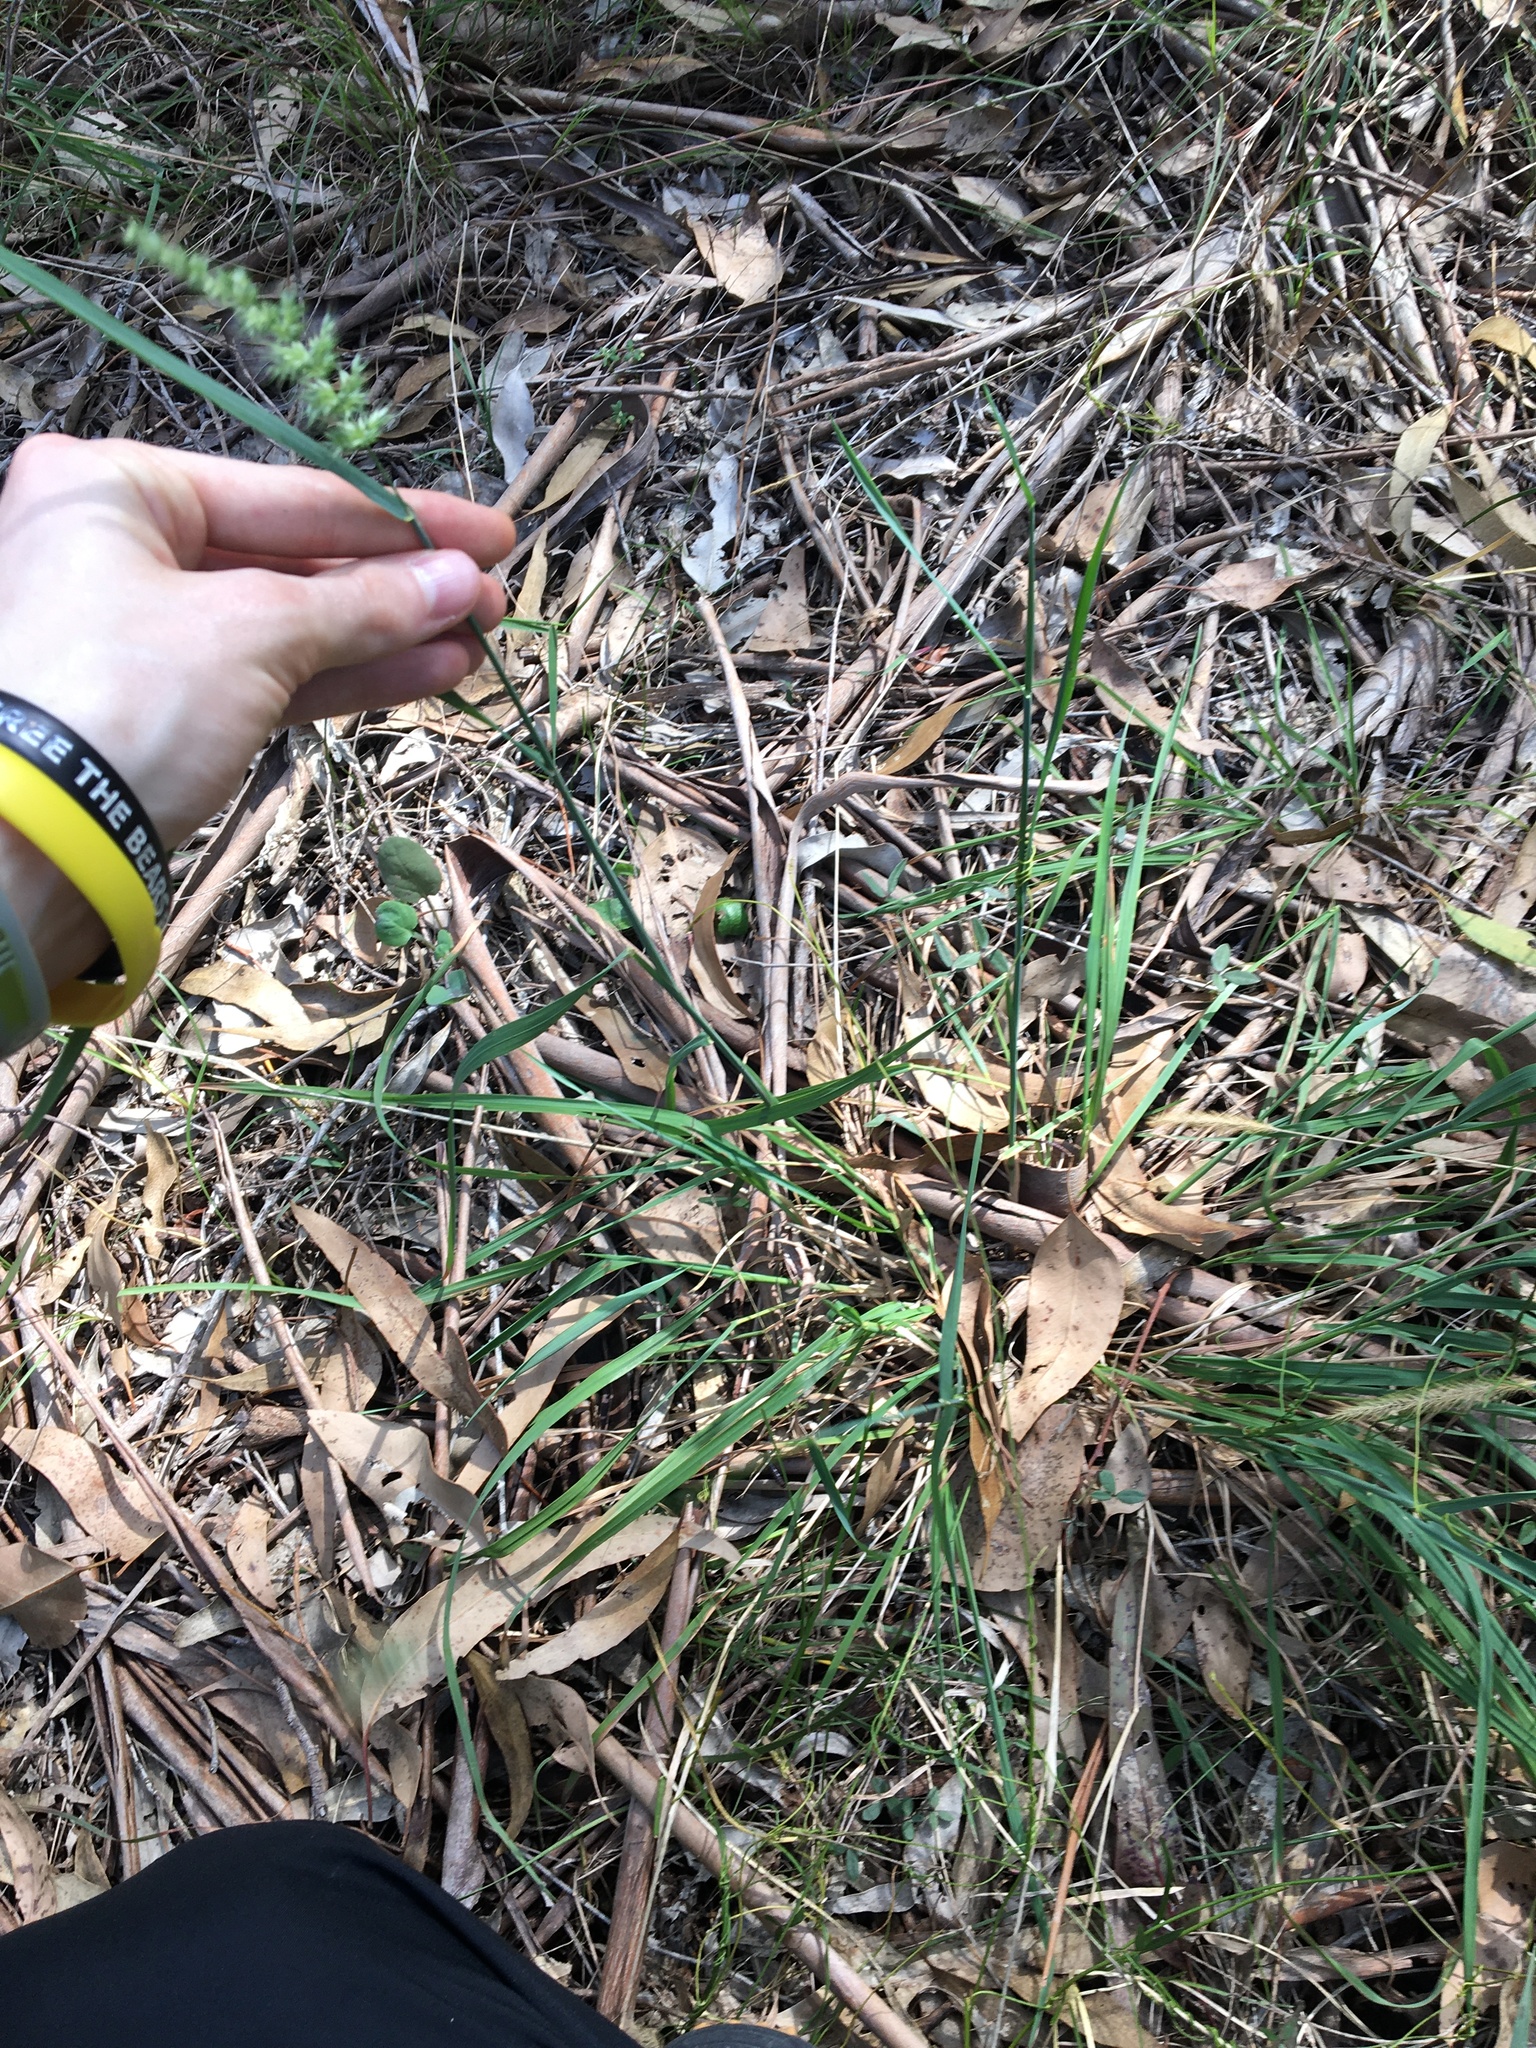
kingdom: Plantae
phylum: Tracheophyta
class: Liliopsida
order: Poales
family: Poaceae
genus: Echinopogon
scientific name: Echinopogon caespitosus
